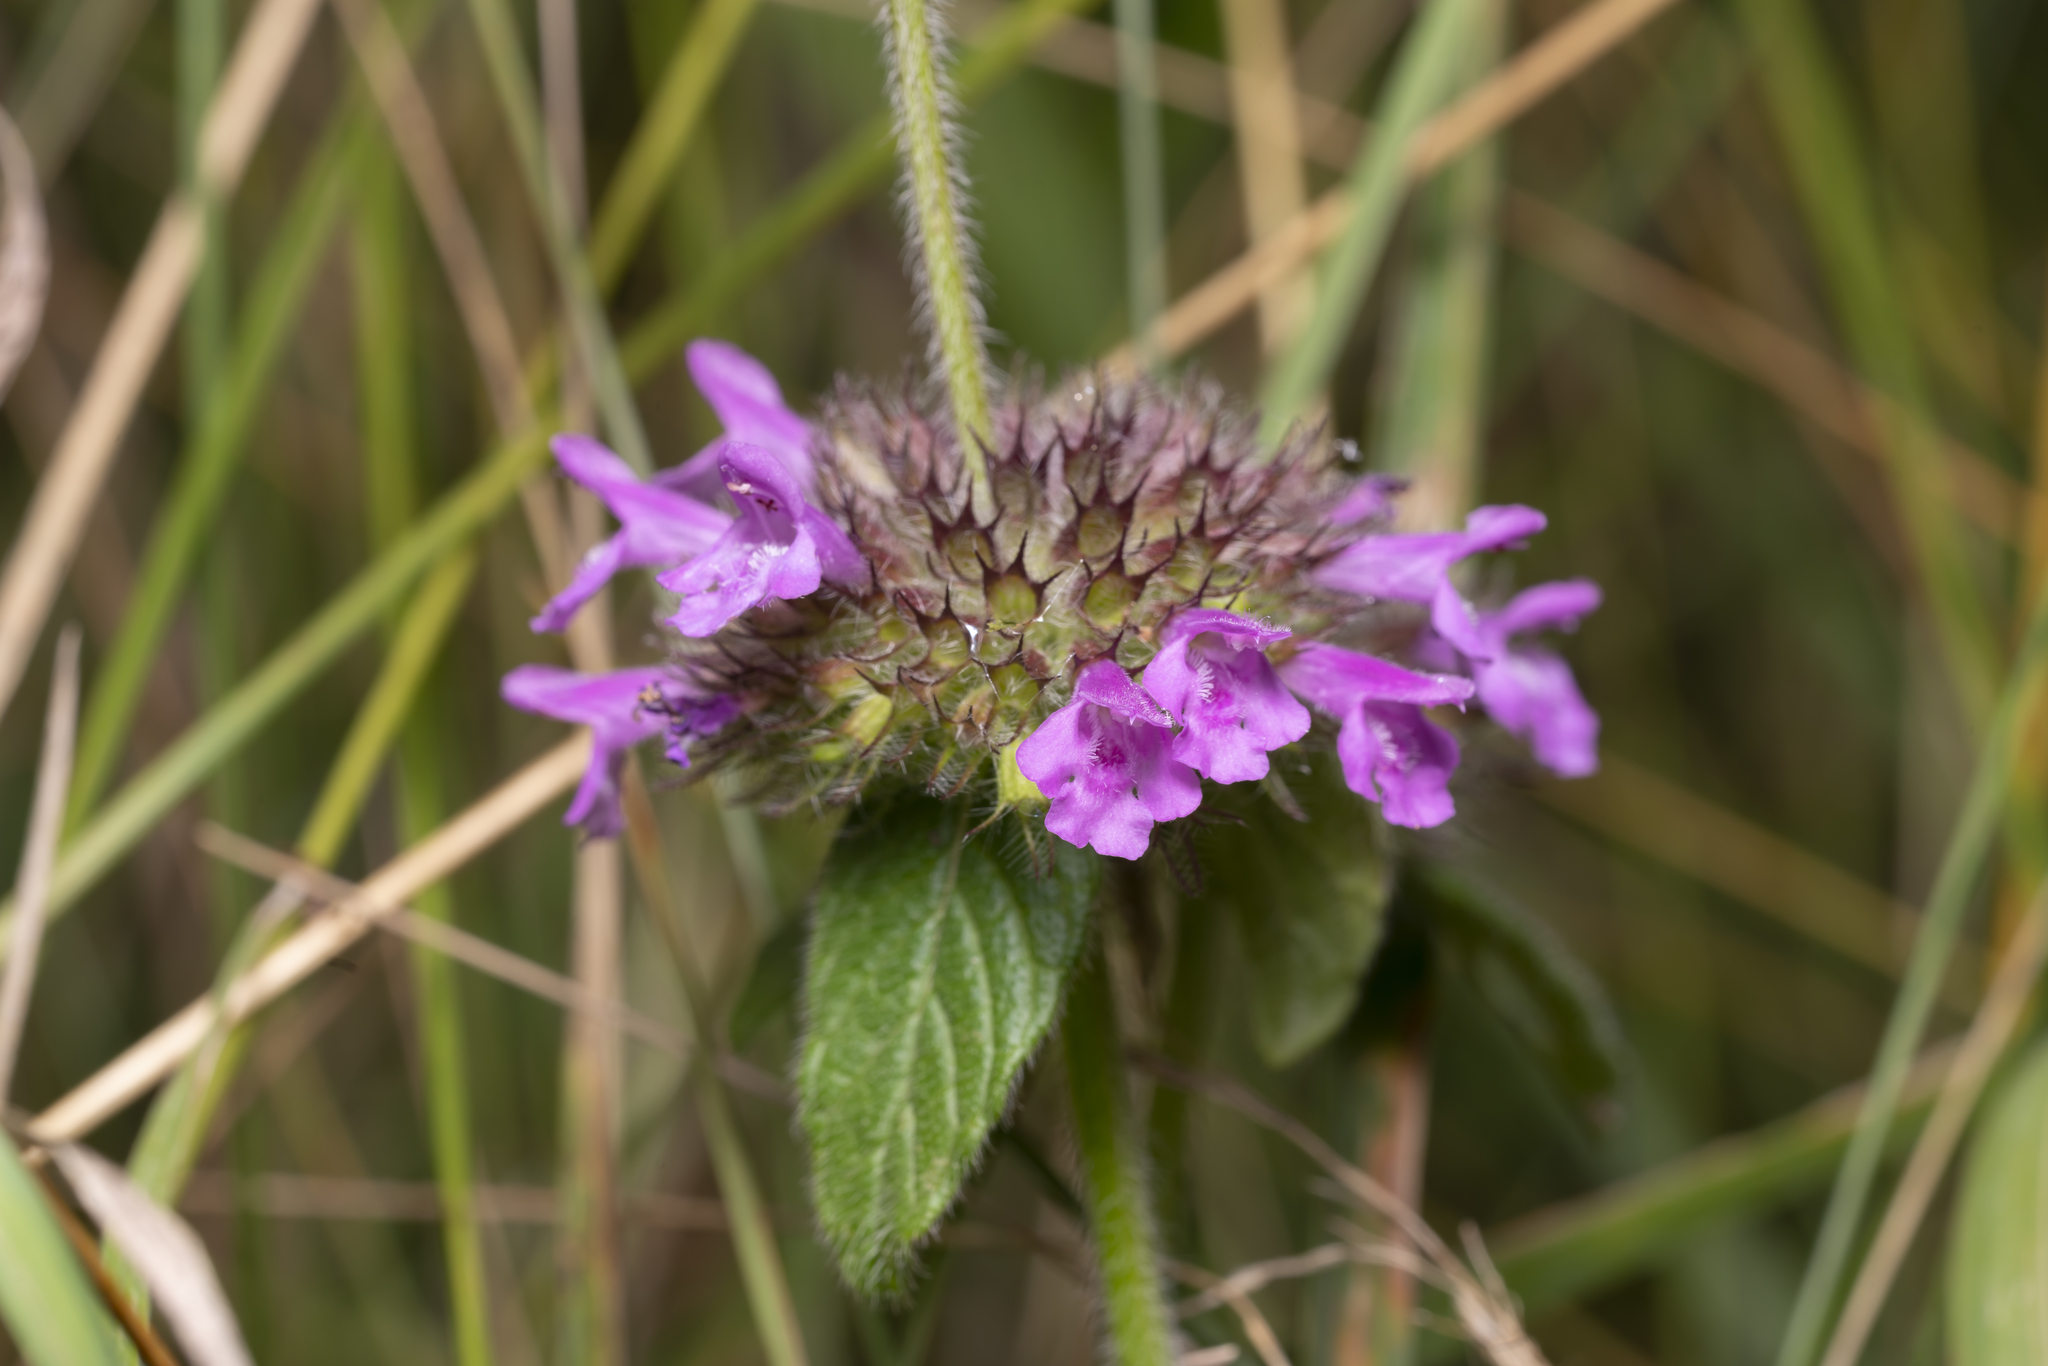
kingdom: Plantae
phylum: Tracheophyta
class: Magnoliopsida
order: Lamiales
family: Lamiaceae
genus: Clinopodium
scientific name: Clinopodium vulgare
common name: Wild basil
